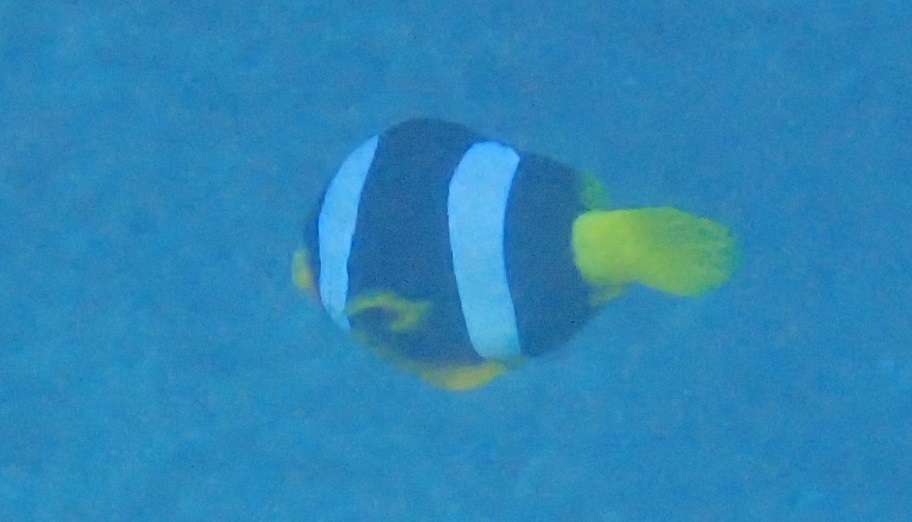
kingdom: Animalia
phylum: Chordata
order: Perciformes
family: Pomacentridae
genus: Amphiprion
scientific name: Amphiprion clarkii
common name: Clark's anemonefish
